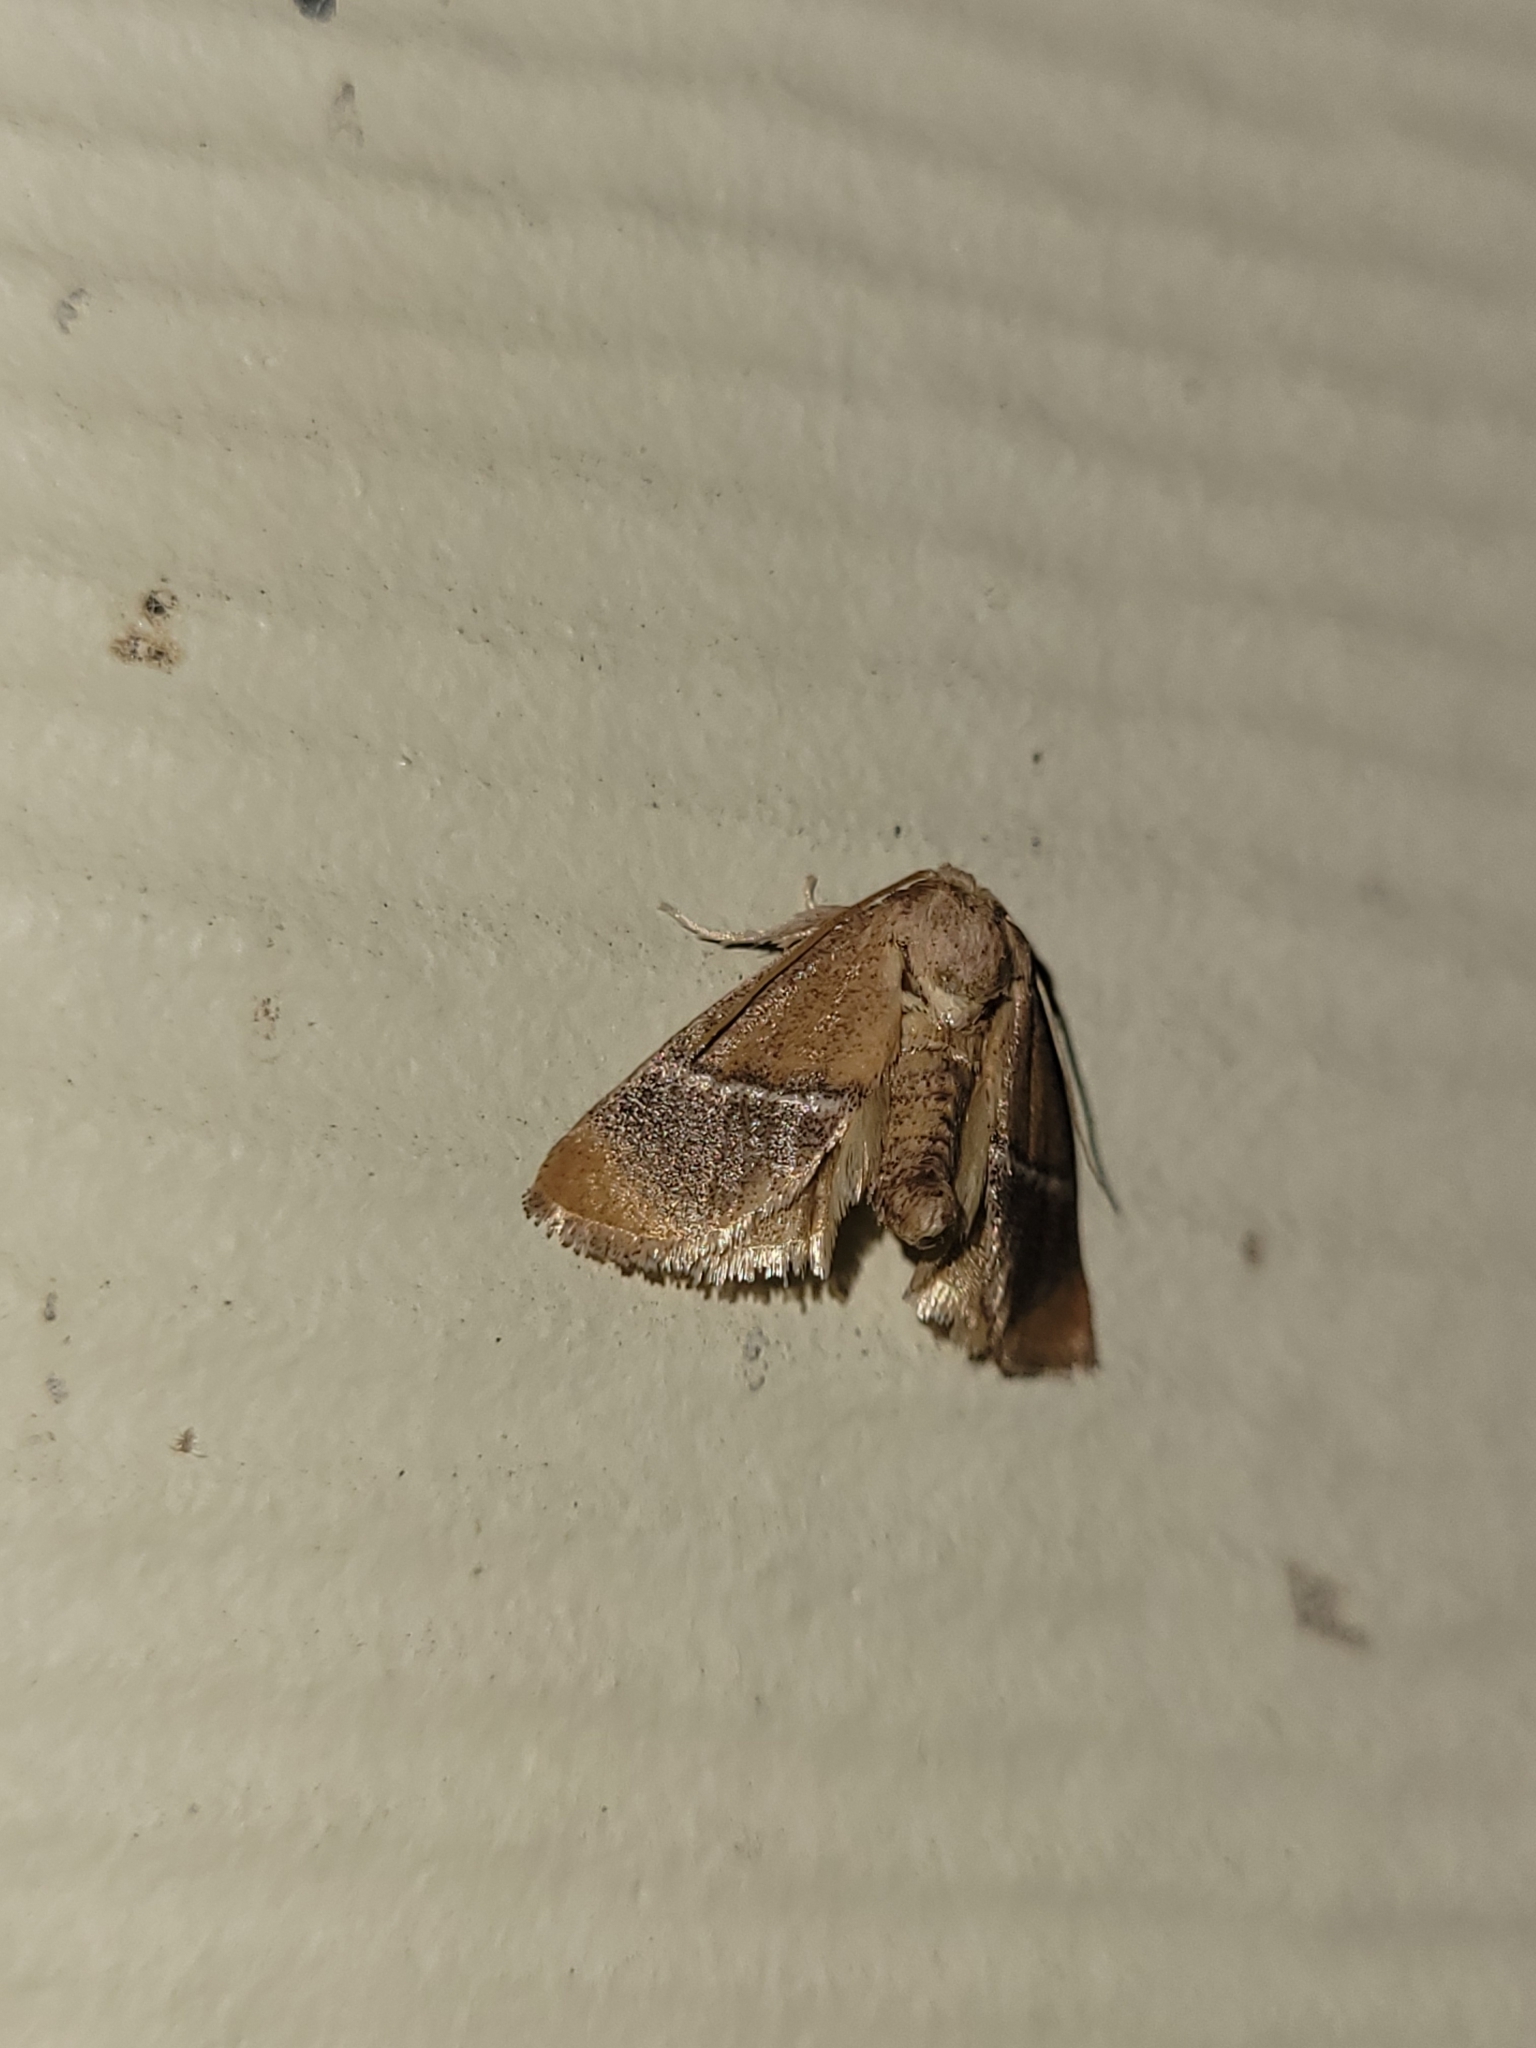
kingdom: Animalia
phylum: Arthropoda
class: Insecta
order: Lepidoptera
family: Limacodidae
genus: Apoda
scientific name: Apoda latomia
